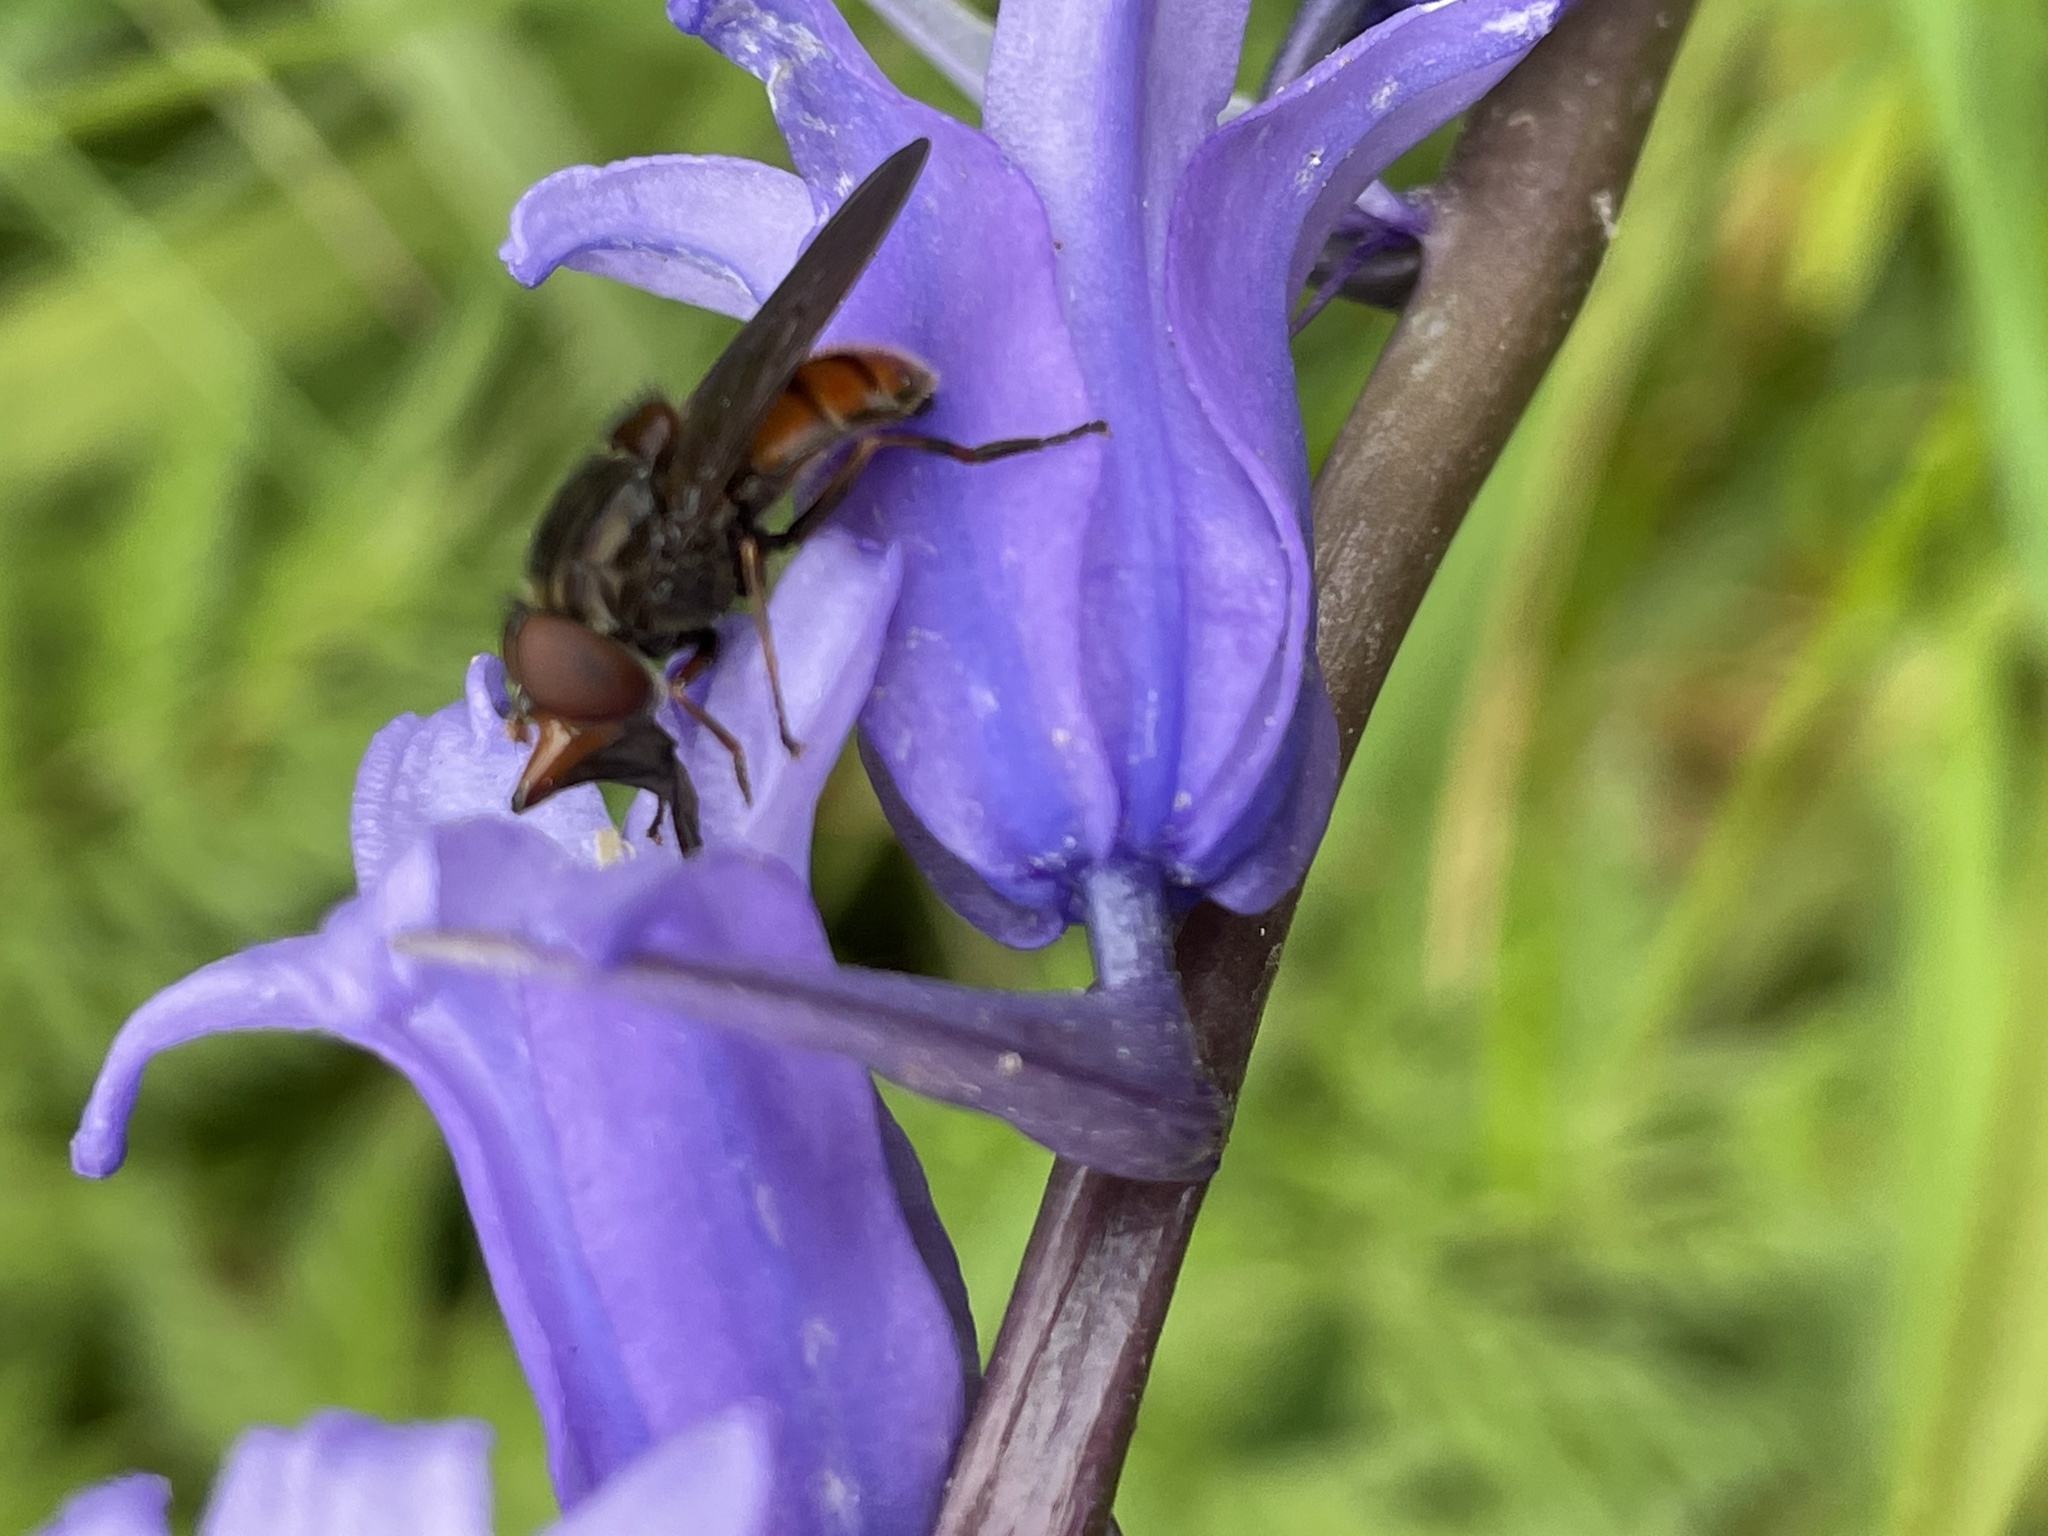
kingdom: Animalia
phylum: Arthropoda
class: Insecta
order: Diptera
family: Syrphidae
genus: Rhingia
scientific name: Rhingia campestris
